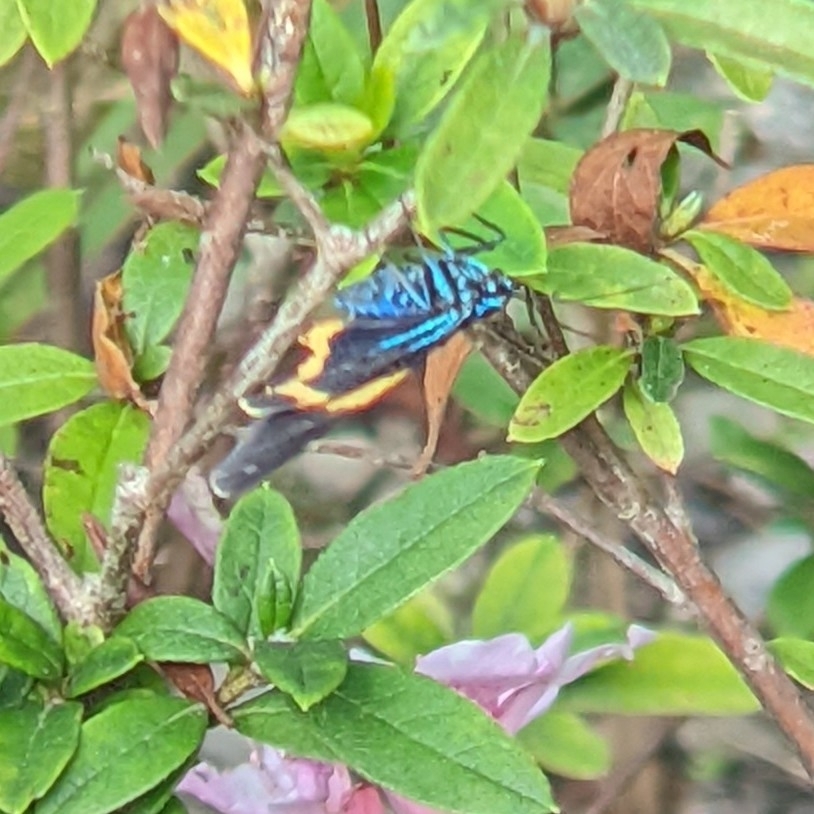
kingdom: Animalia
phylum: Arthropoda
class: Insecta
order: Lepidoptera
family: Geometridae
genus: Milionia
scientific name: Milionia basalis
